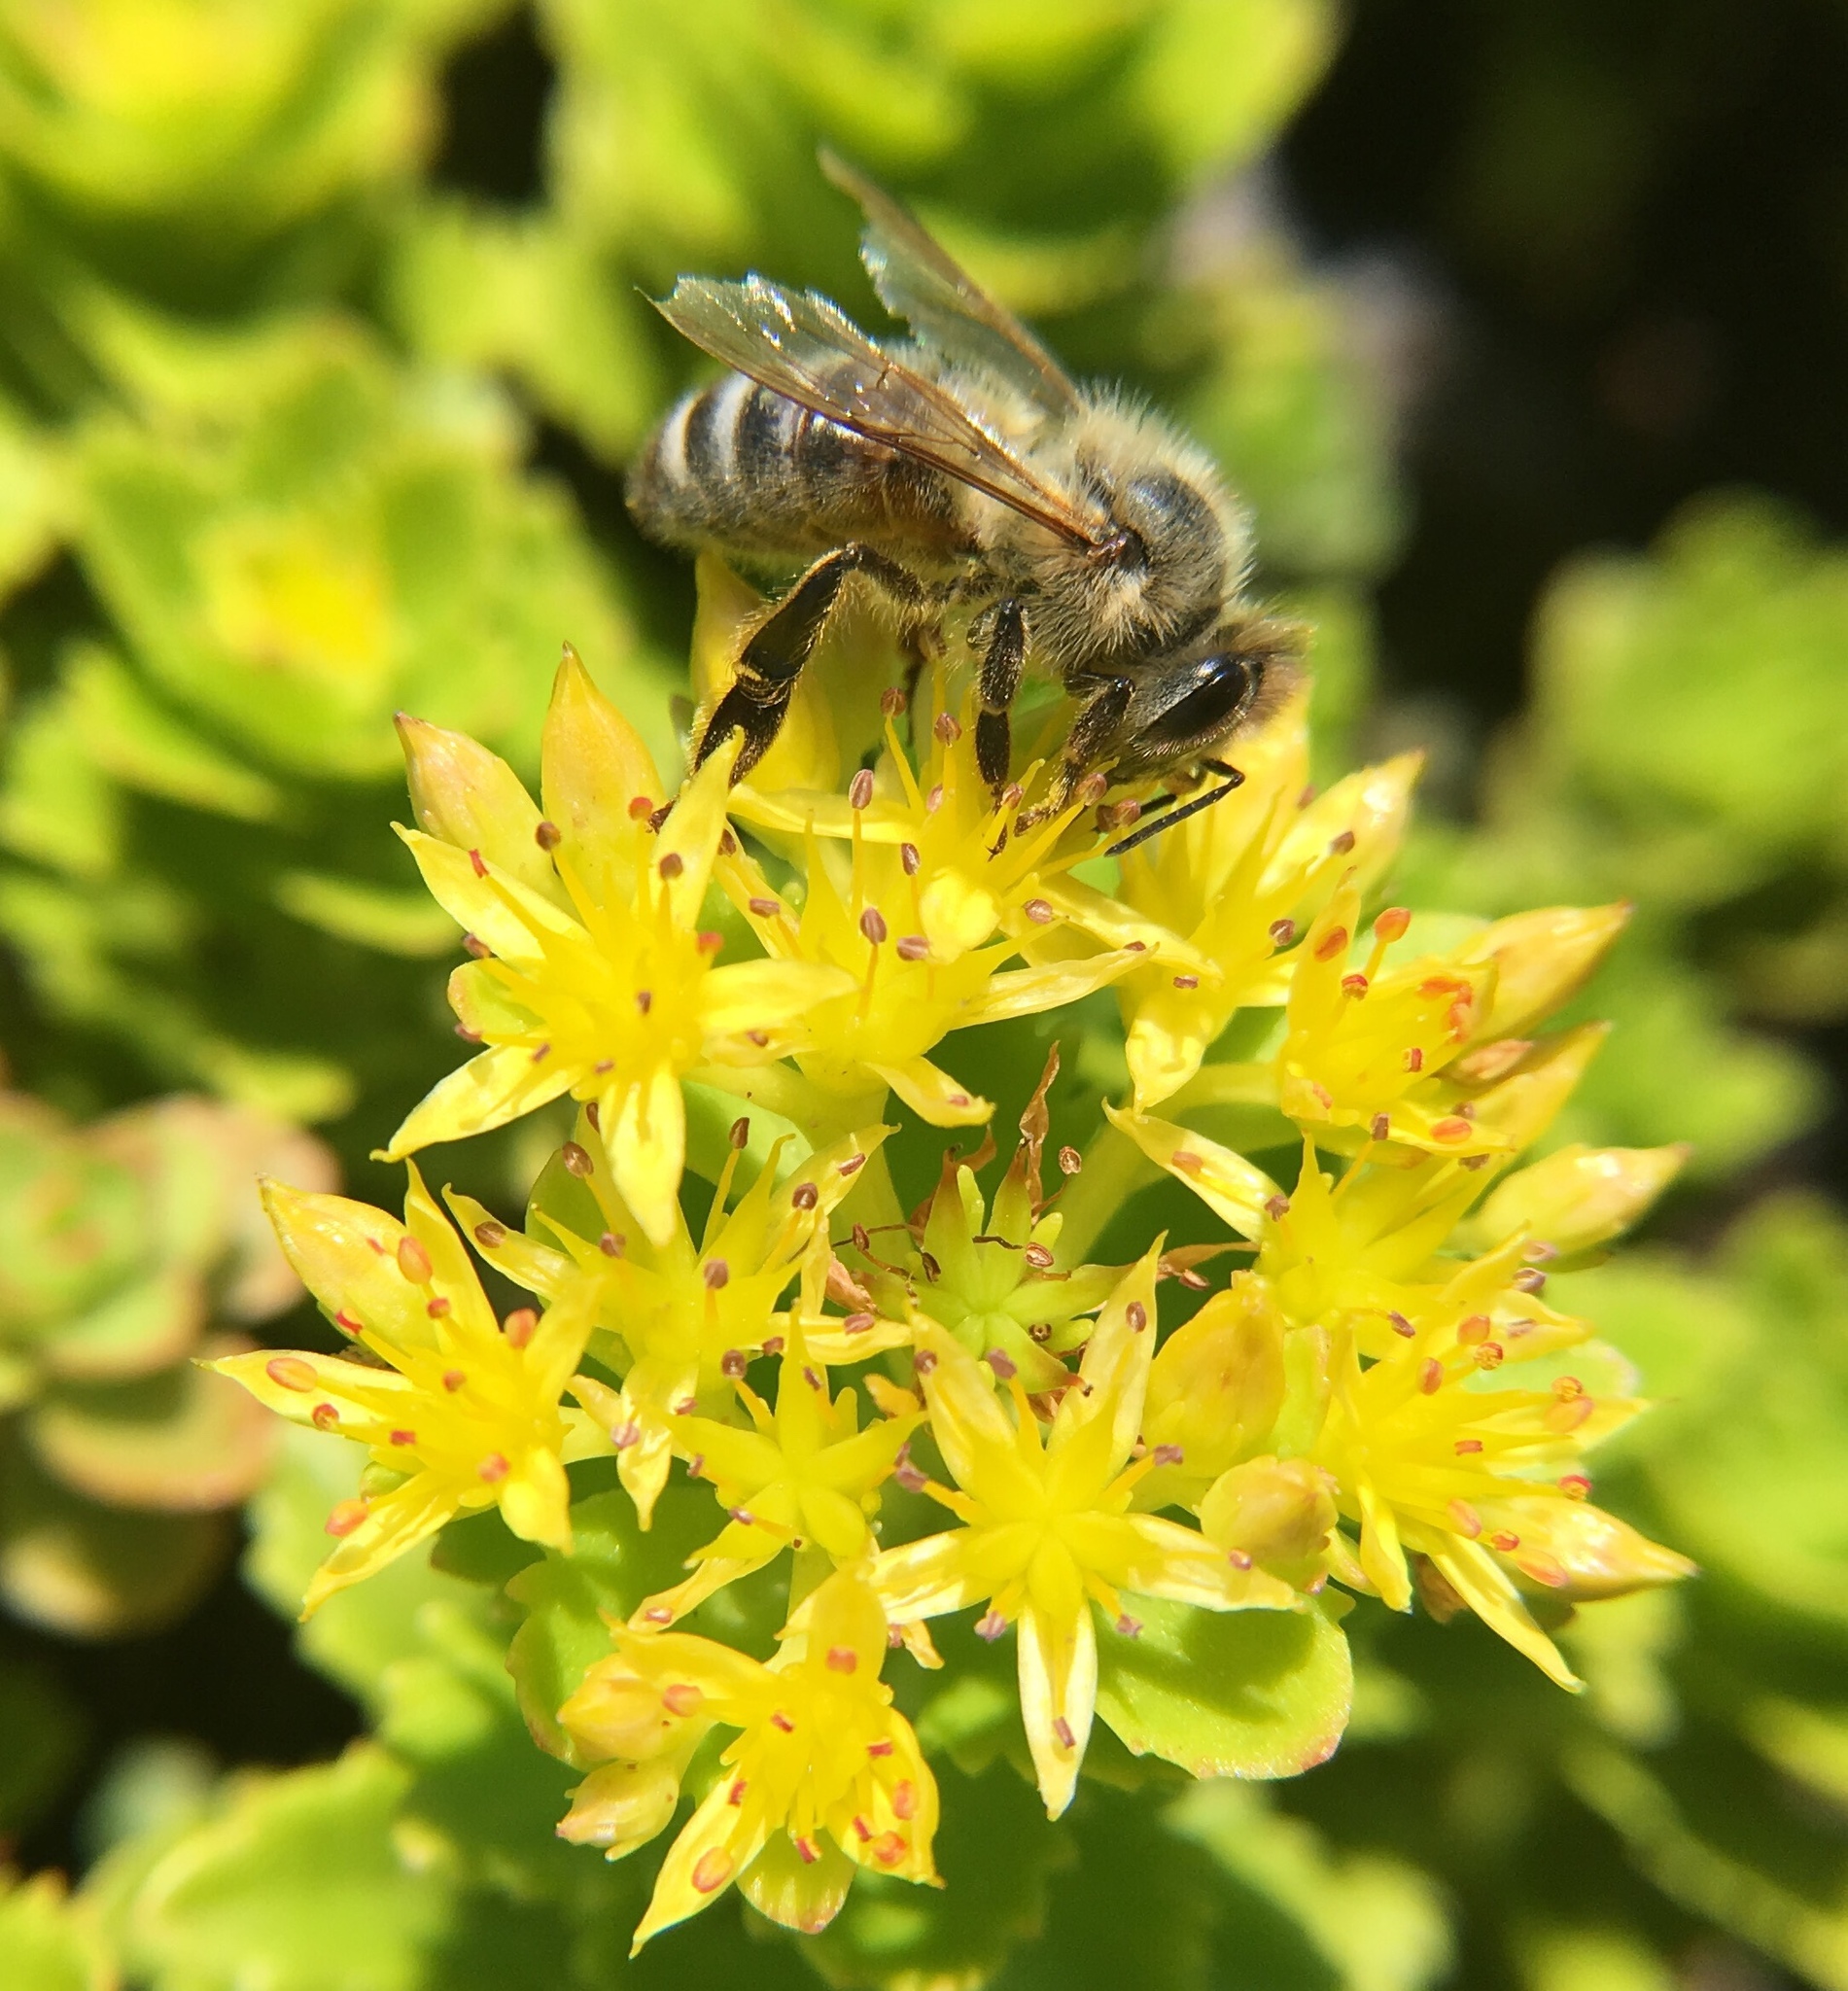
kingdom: Animalia
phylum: Arthropoda
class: Insecta
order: Hymenoptera
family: Apidae
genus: Apis
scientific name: Apis mellifera
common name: Honey bee
